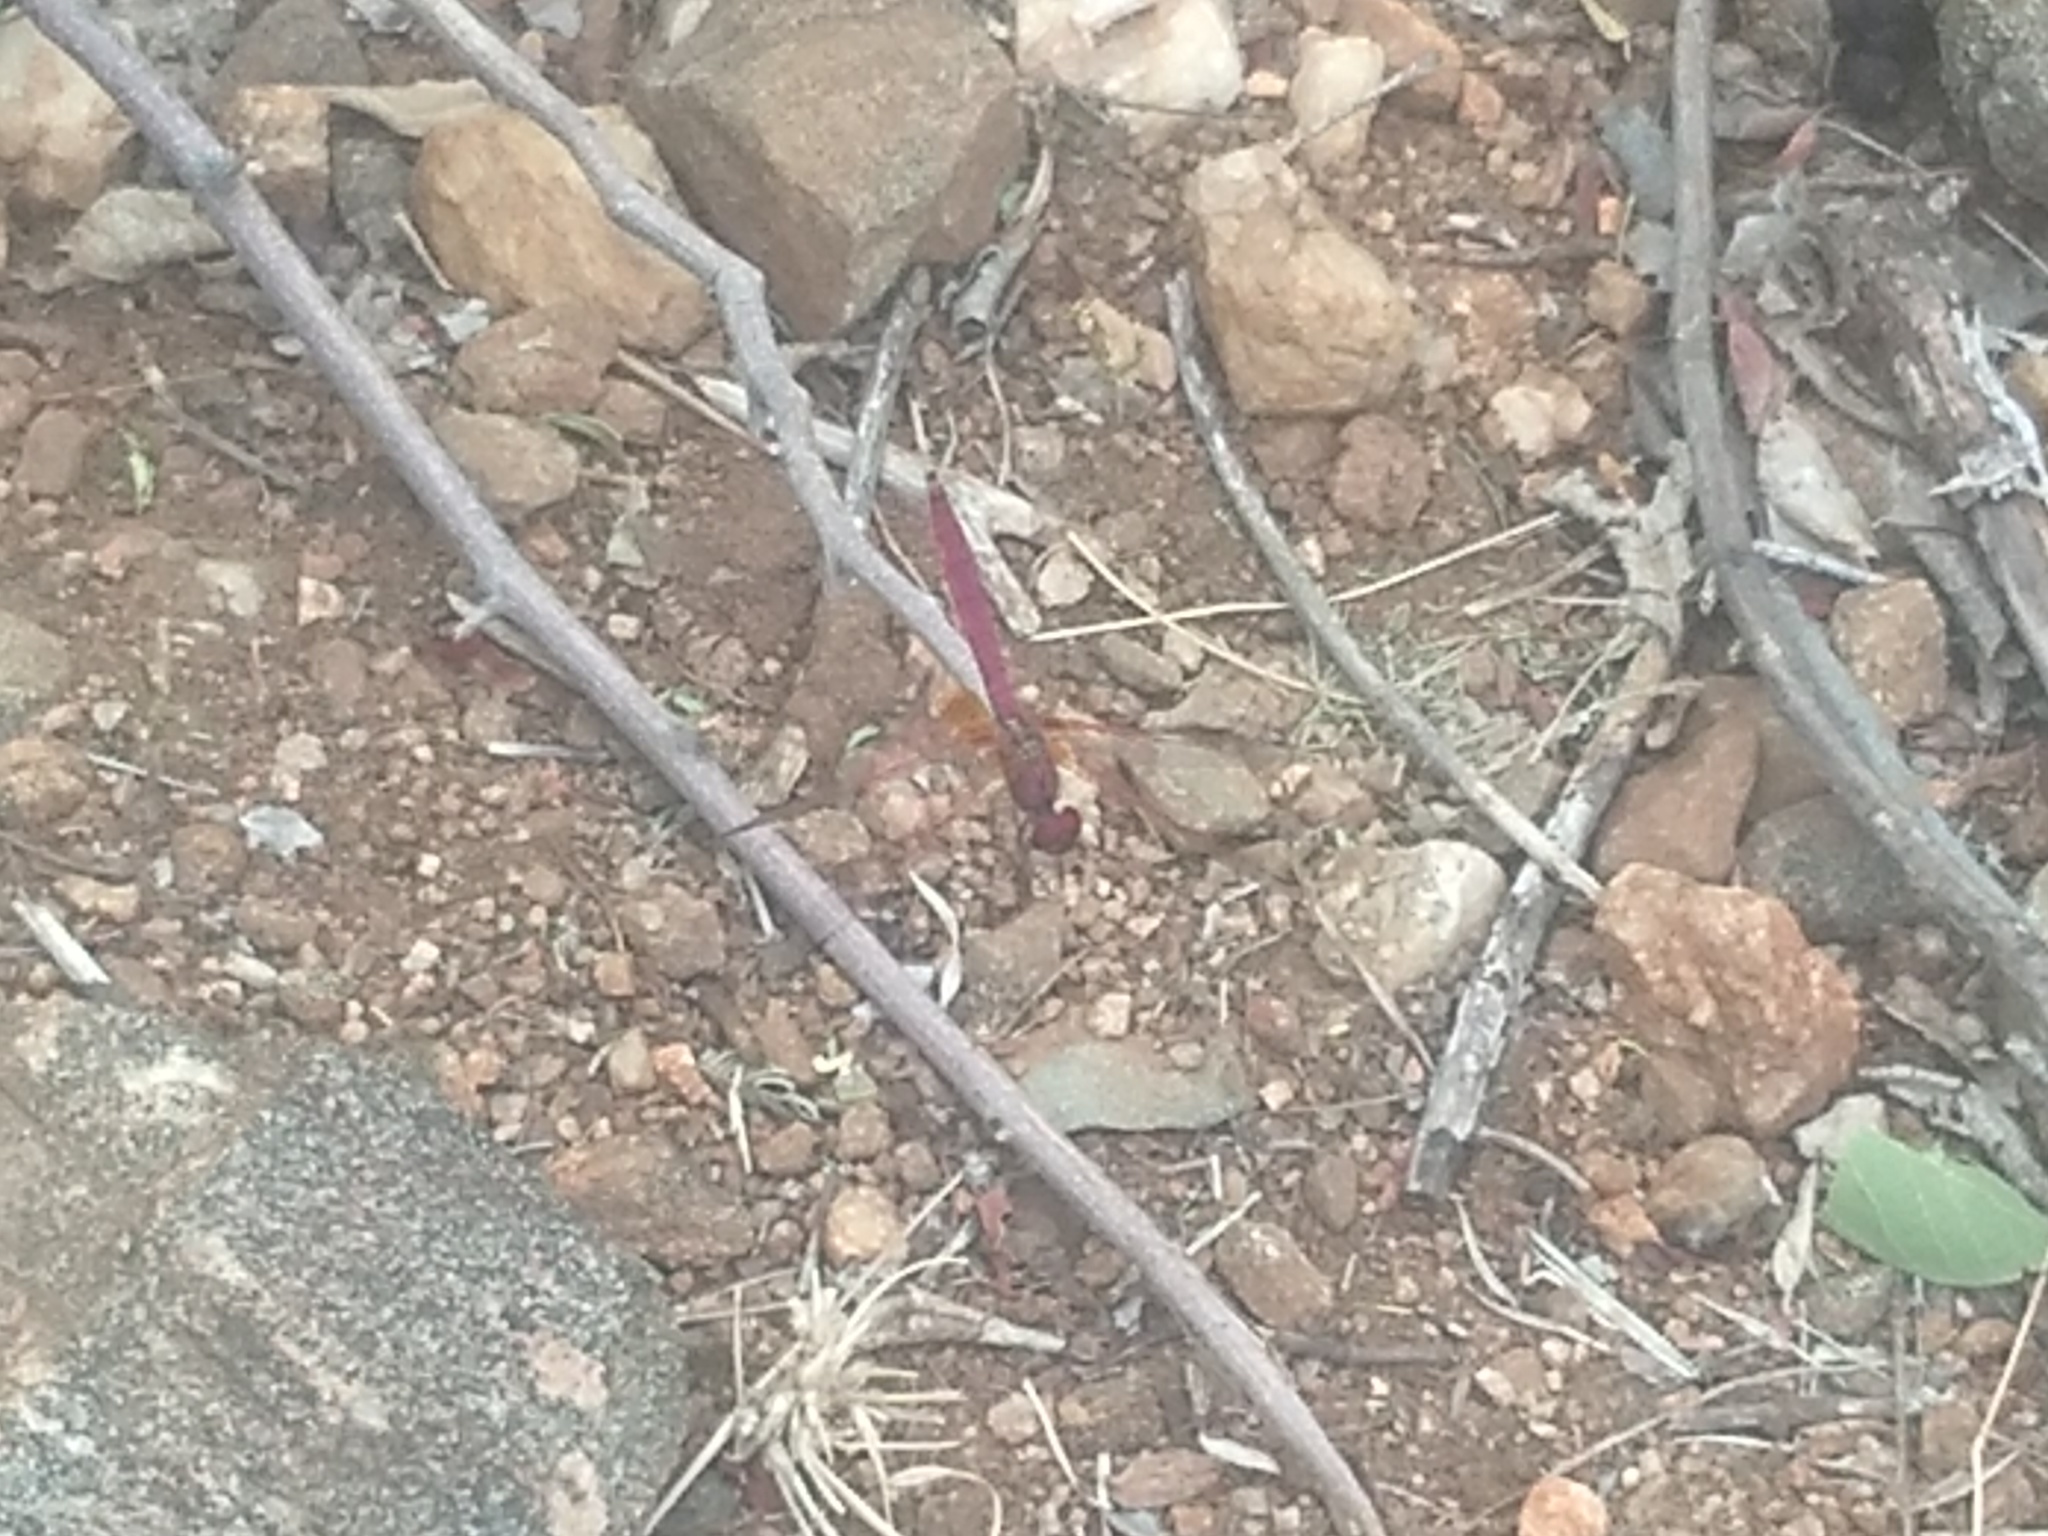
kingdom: Animalia
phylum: Arthropoda
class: Insecta
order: Odonata
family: Libellulidae
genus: Trithemis
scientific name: Trithemis aurora
